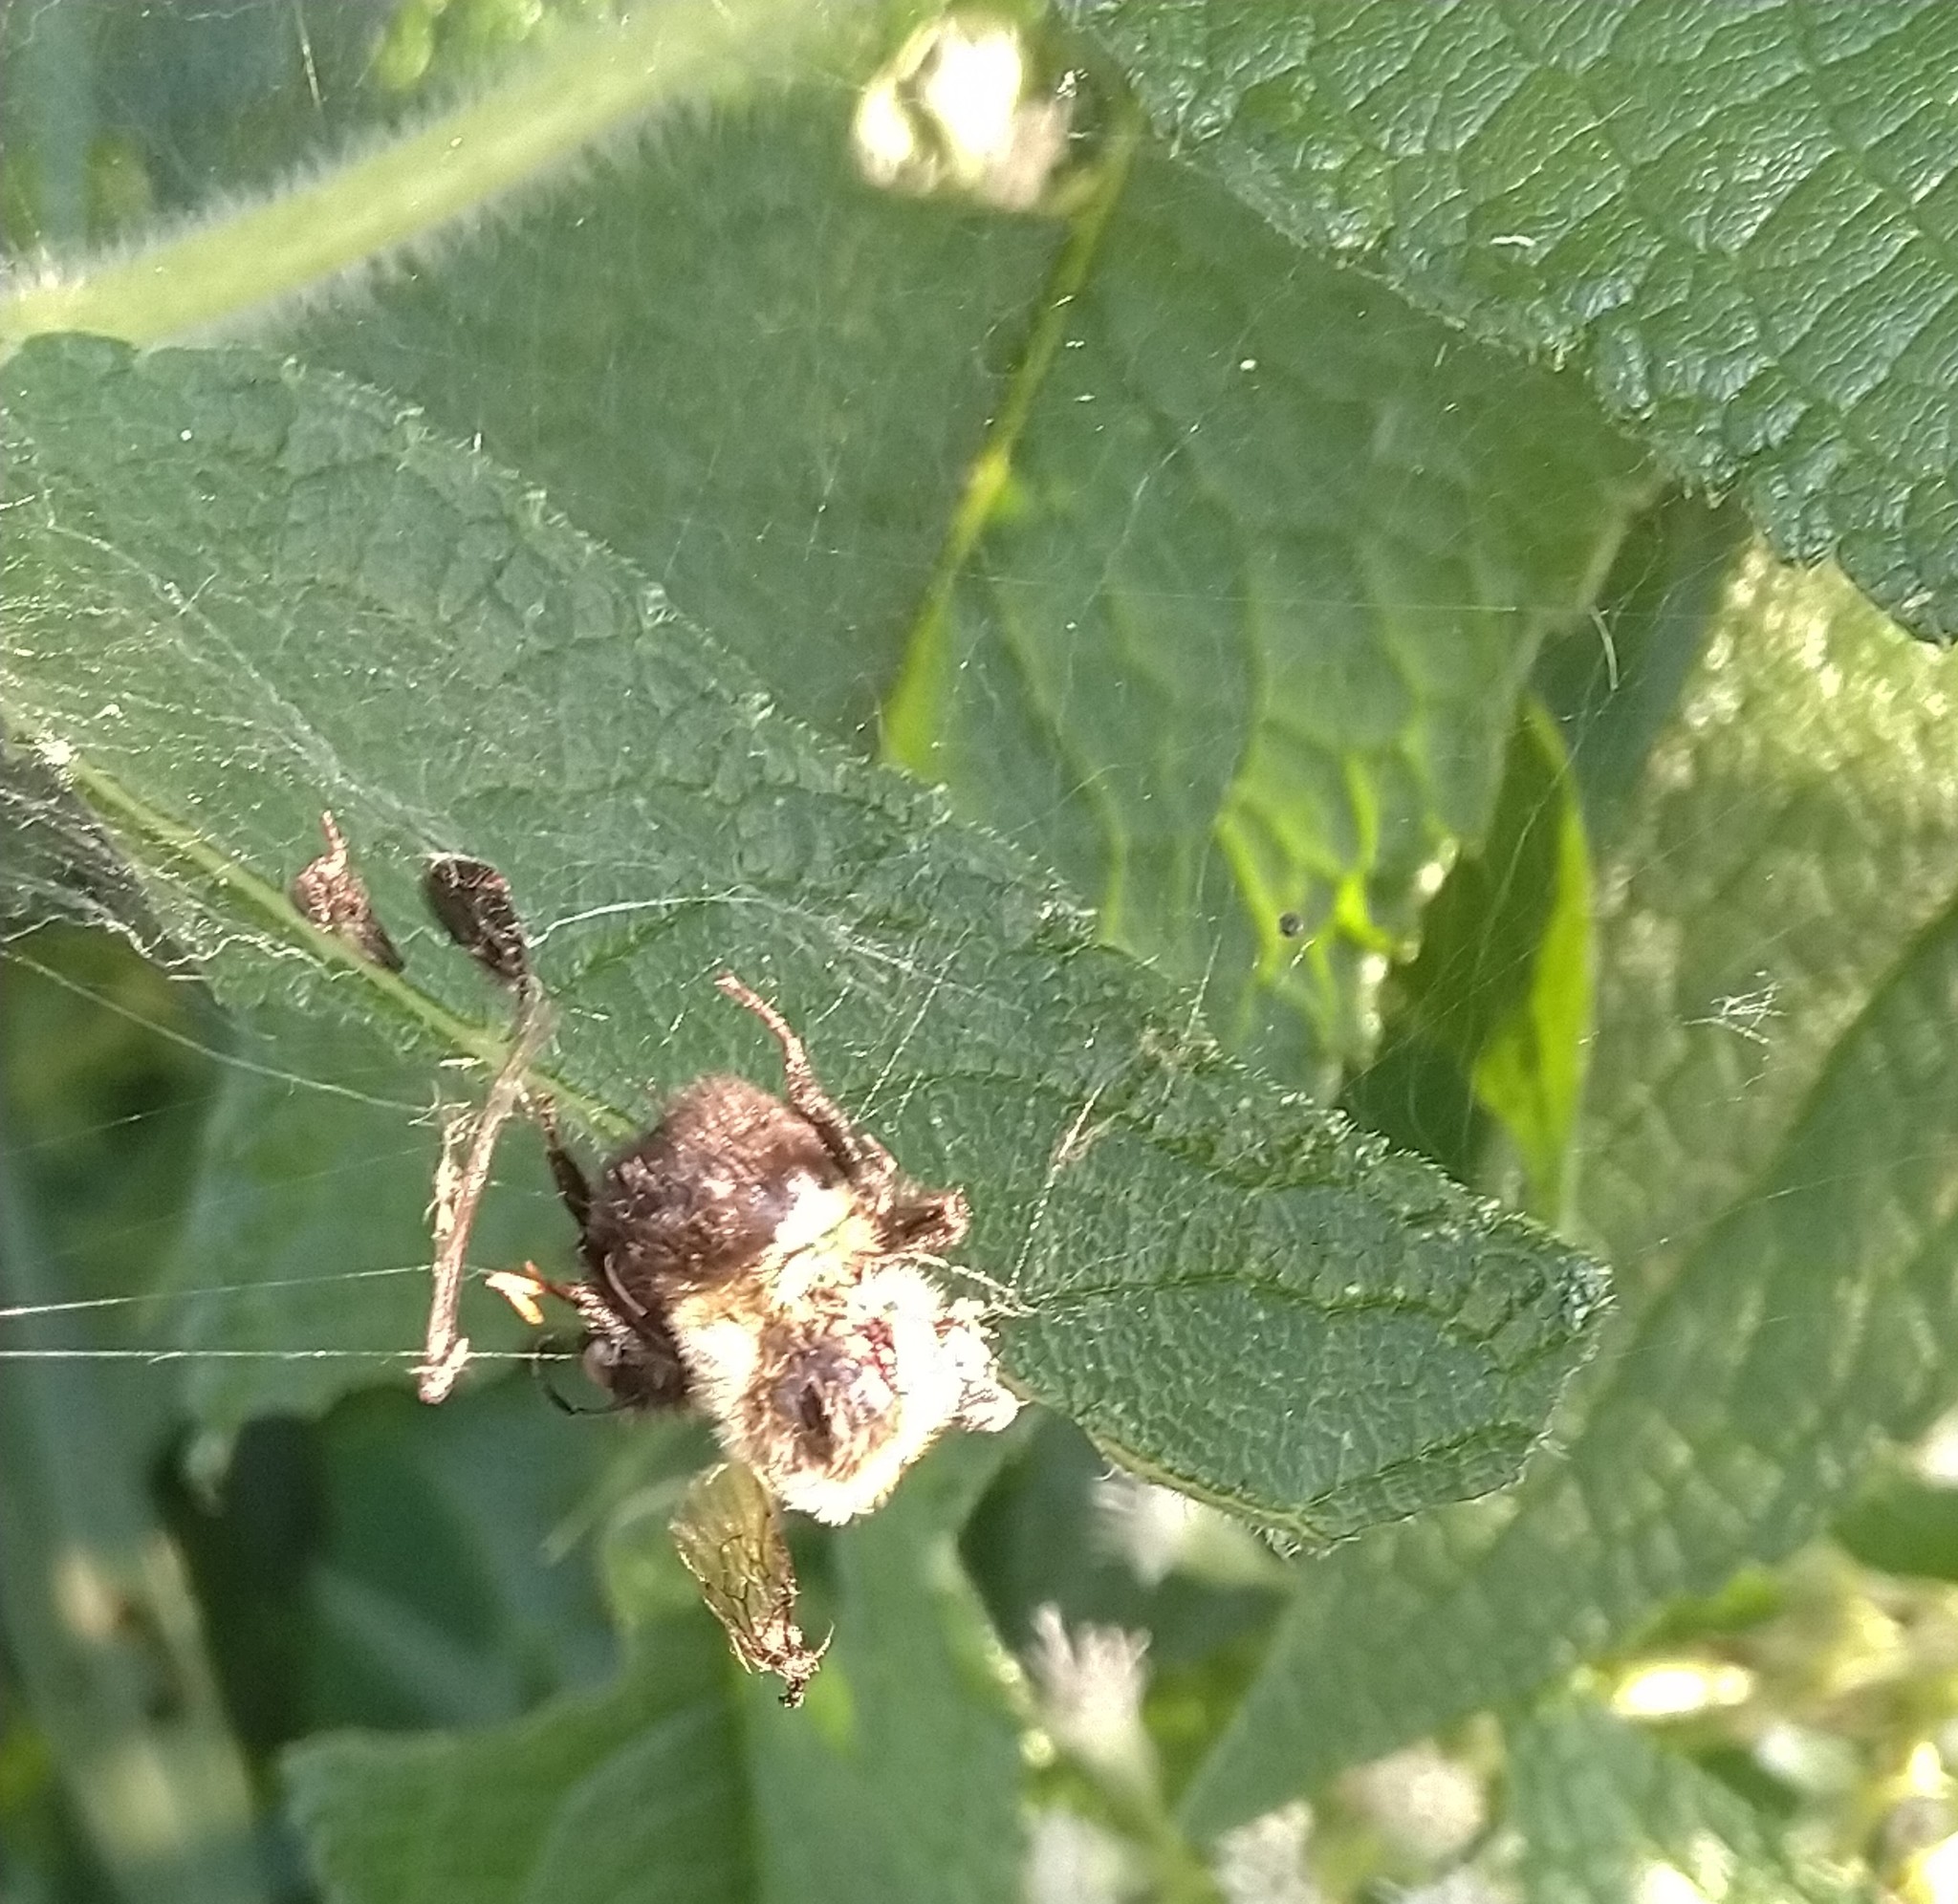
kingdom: Animalia
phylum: Arthropoda
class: Insecta
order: Hymenoptera
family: Apidae
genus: Bombus
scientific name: Bombus
